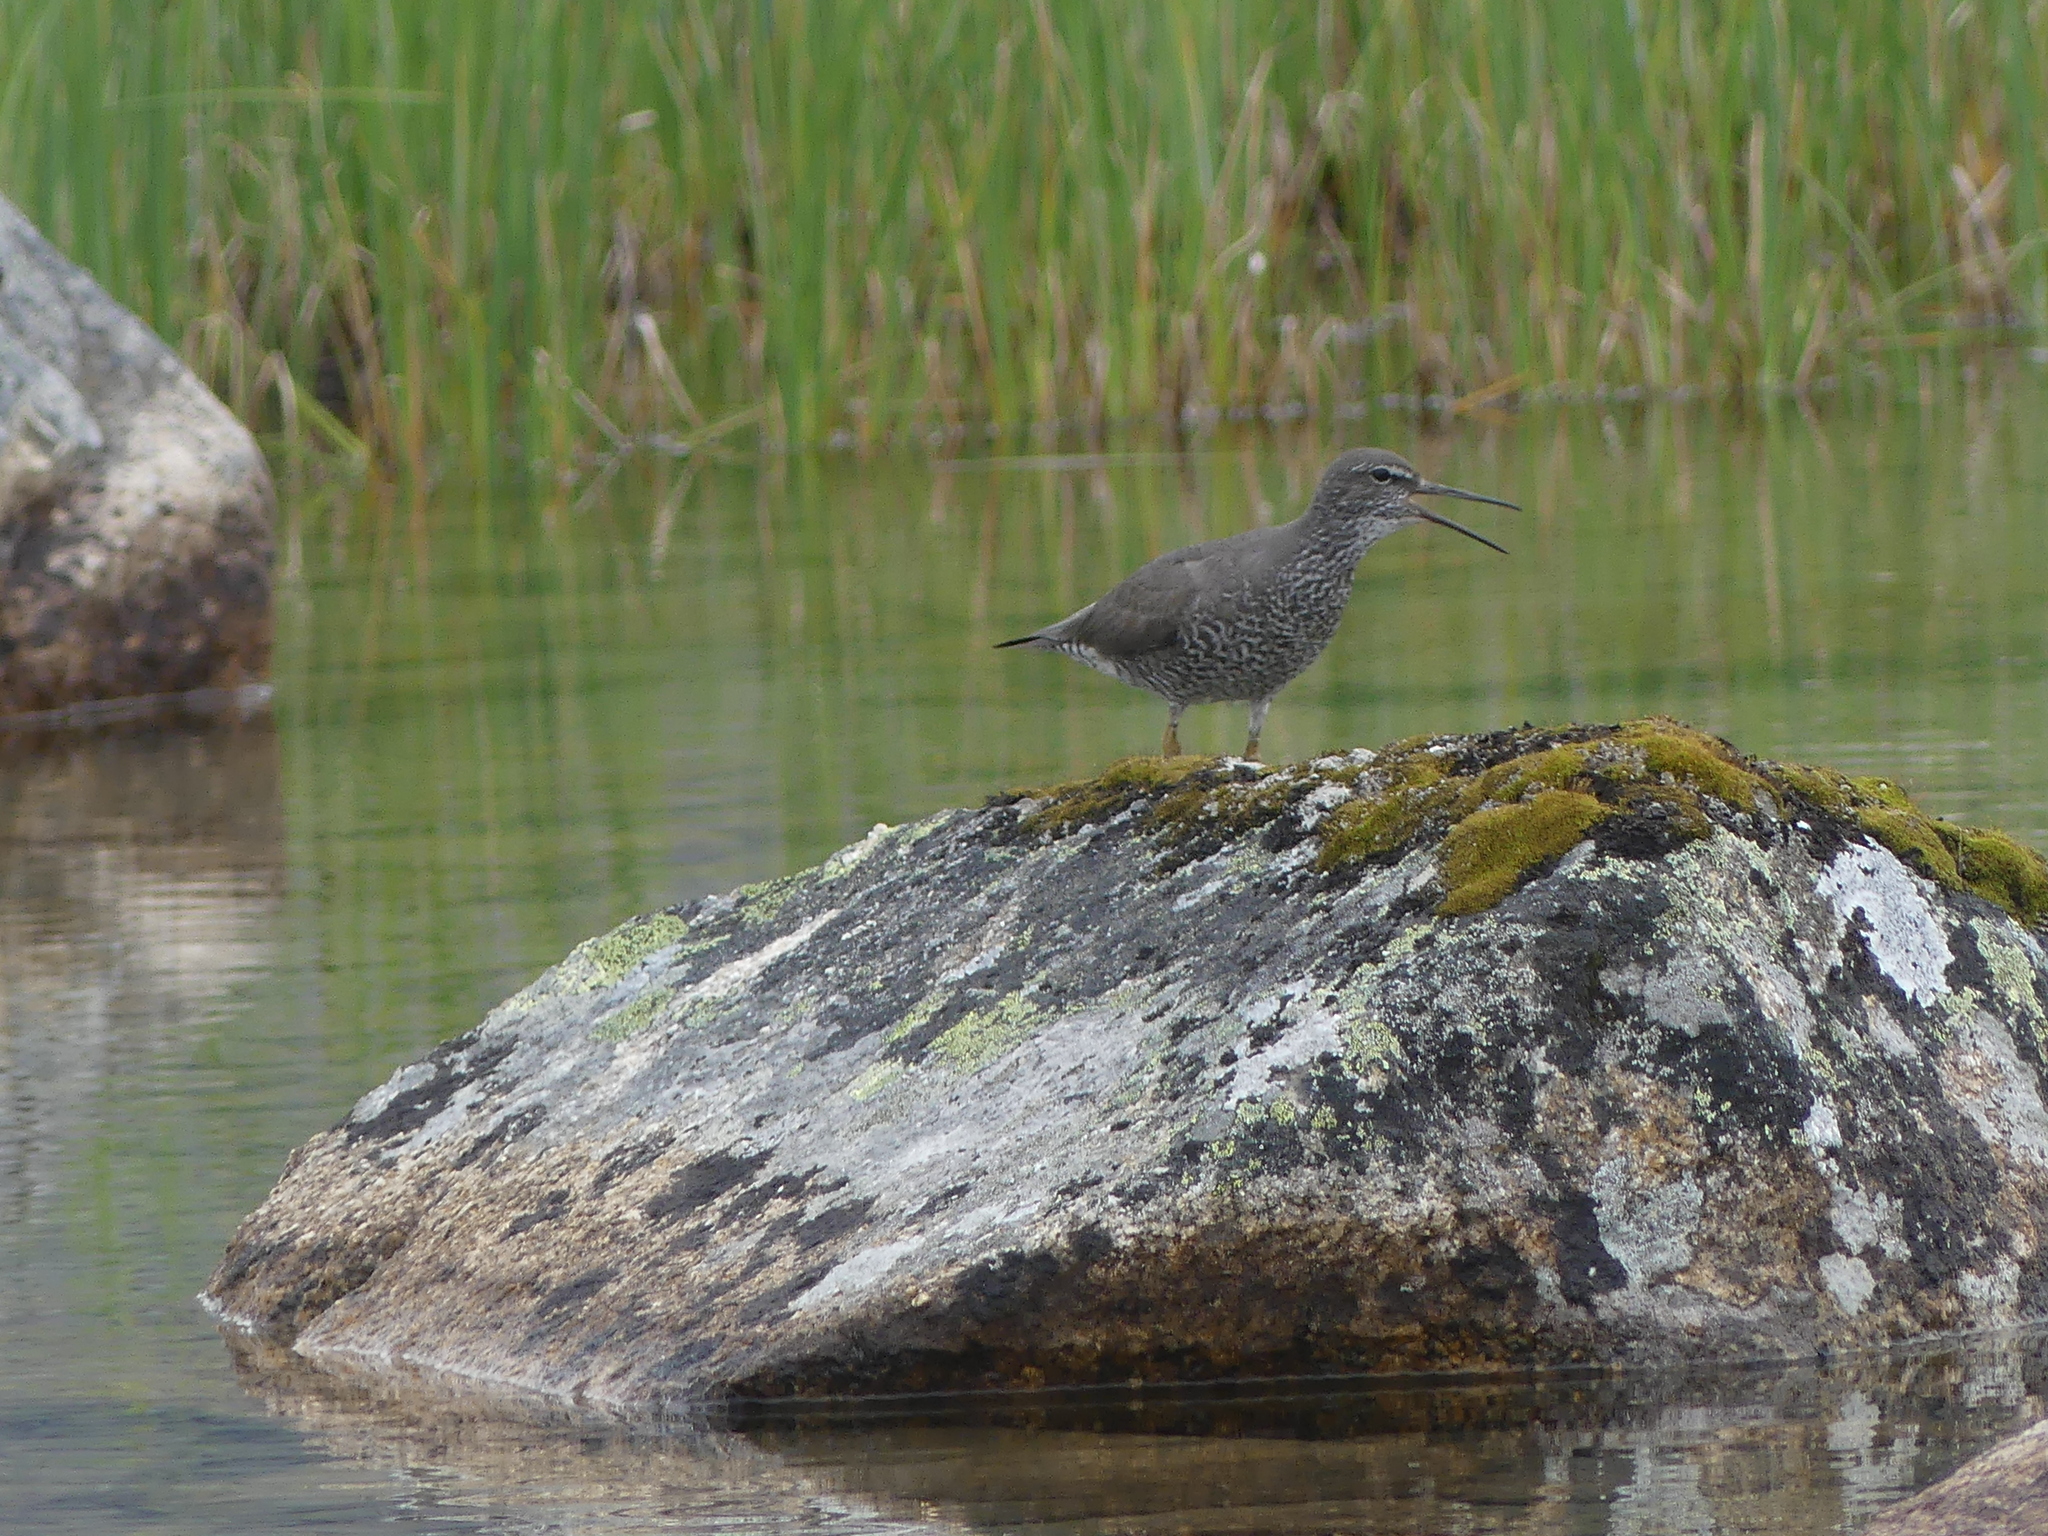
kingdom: Animalia
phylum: Chordata
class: Aves
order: Charadriiformes
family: Scolopacidae
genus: Tringa
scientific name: Tringa incana
